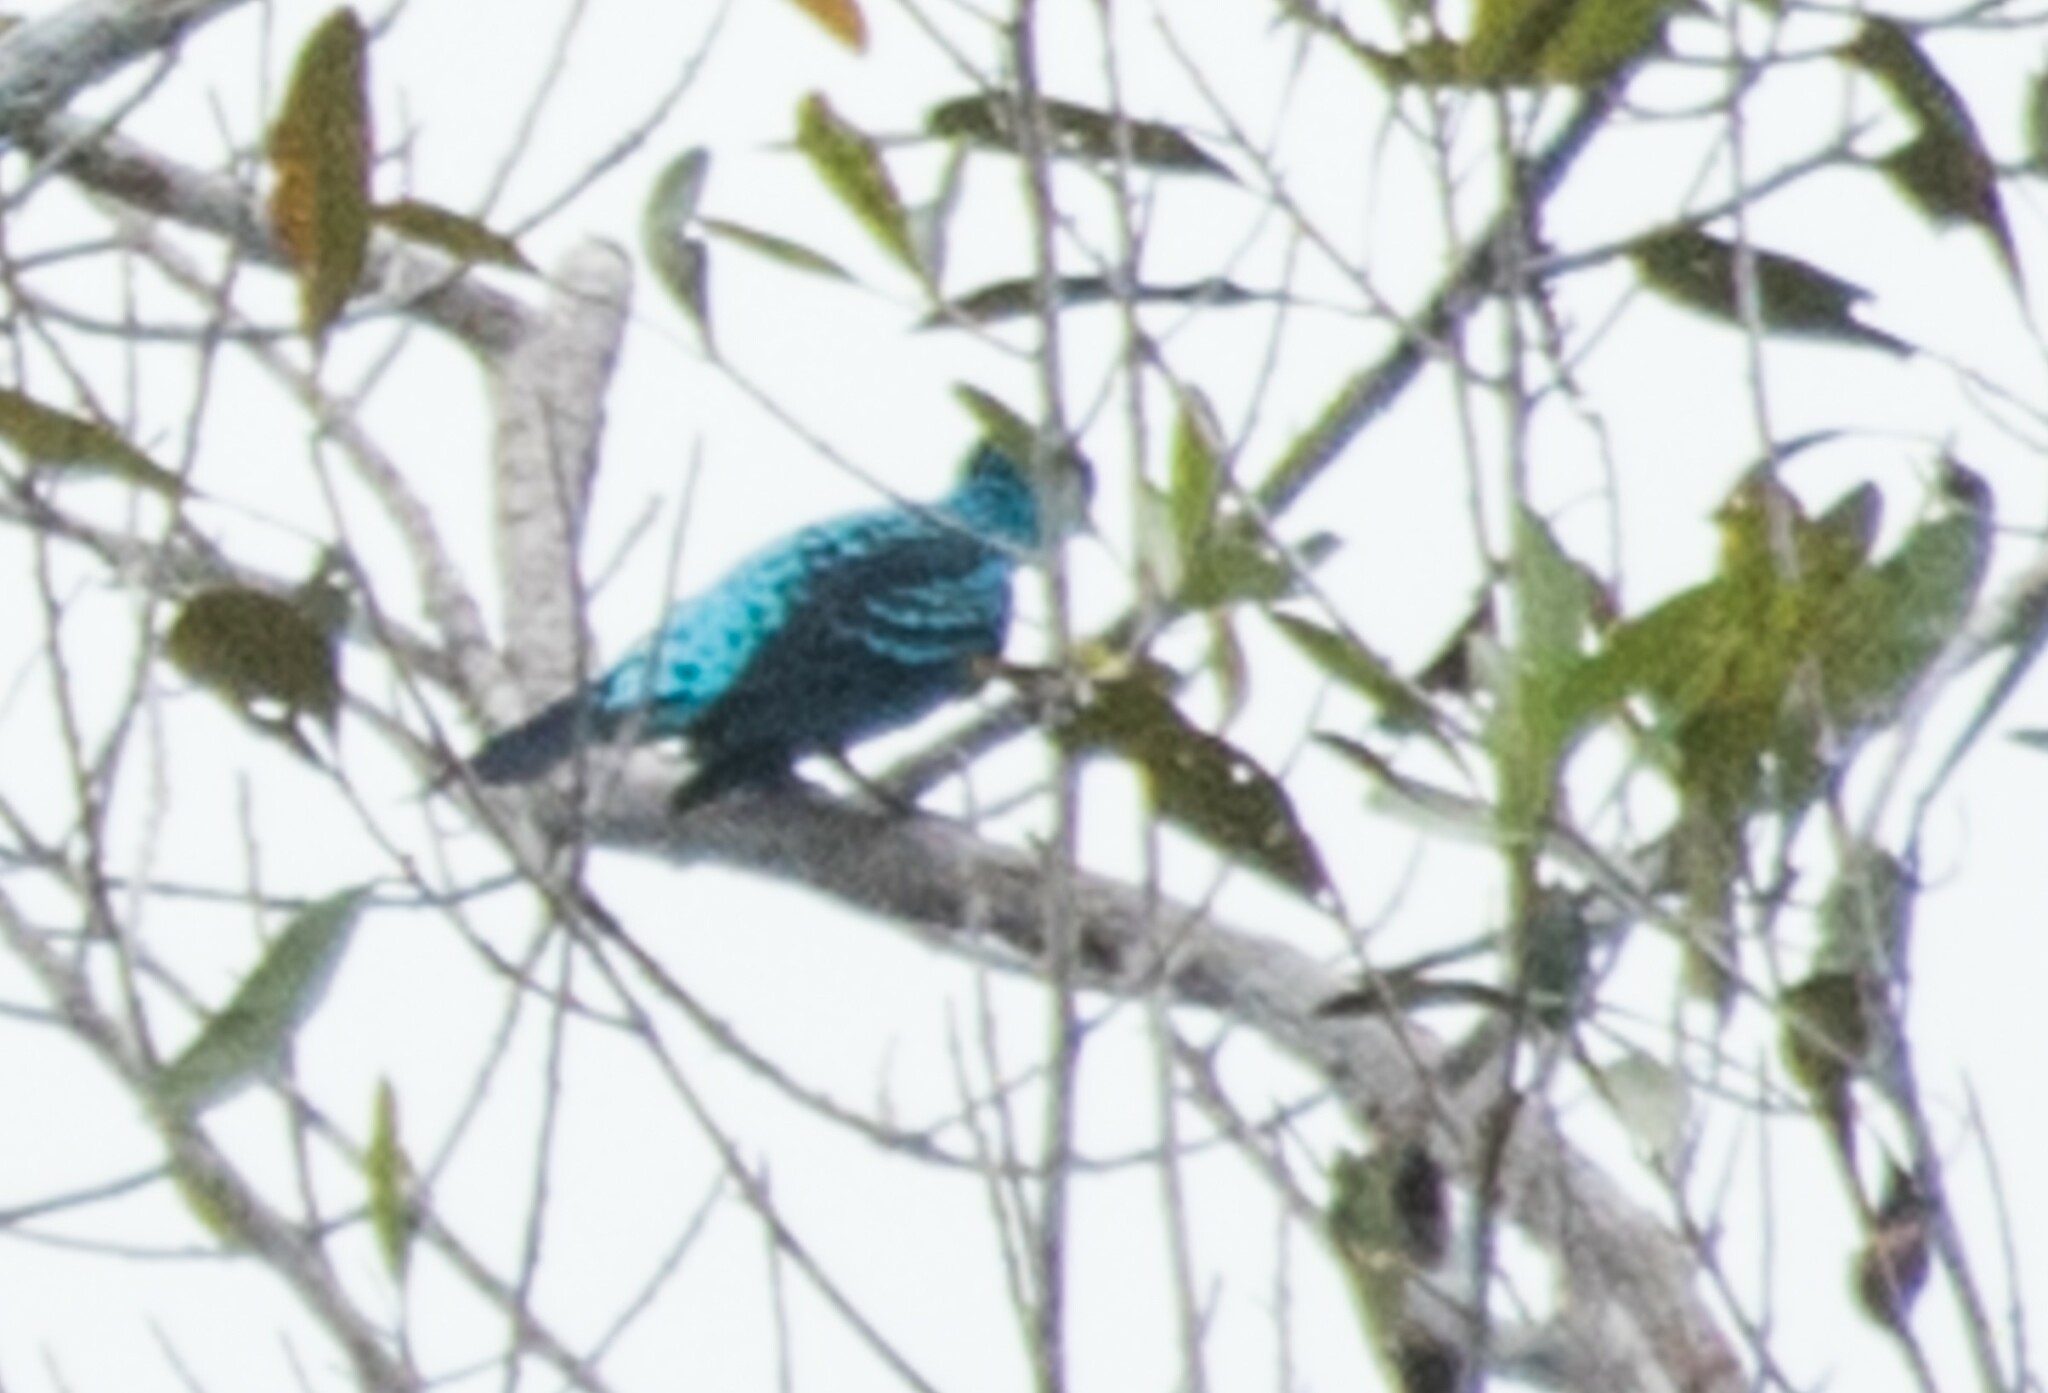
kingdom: Animalia
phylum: Chordata
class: Aves
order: Passeriformes
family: Cotingidae
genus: Cotinga
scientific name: Cotinga cayana
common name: Spangled cotinga
